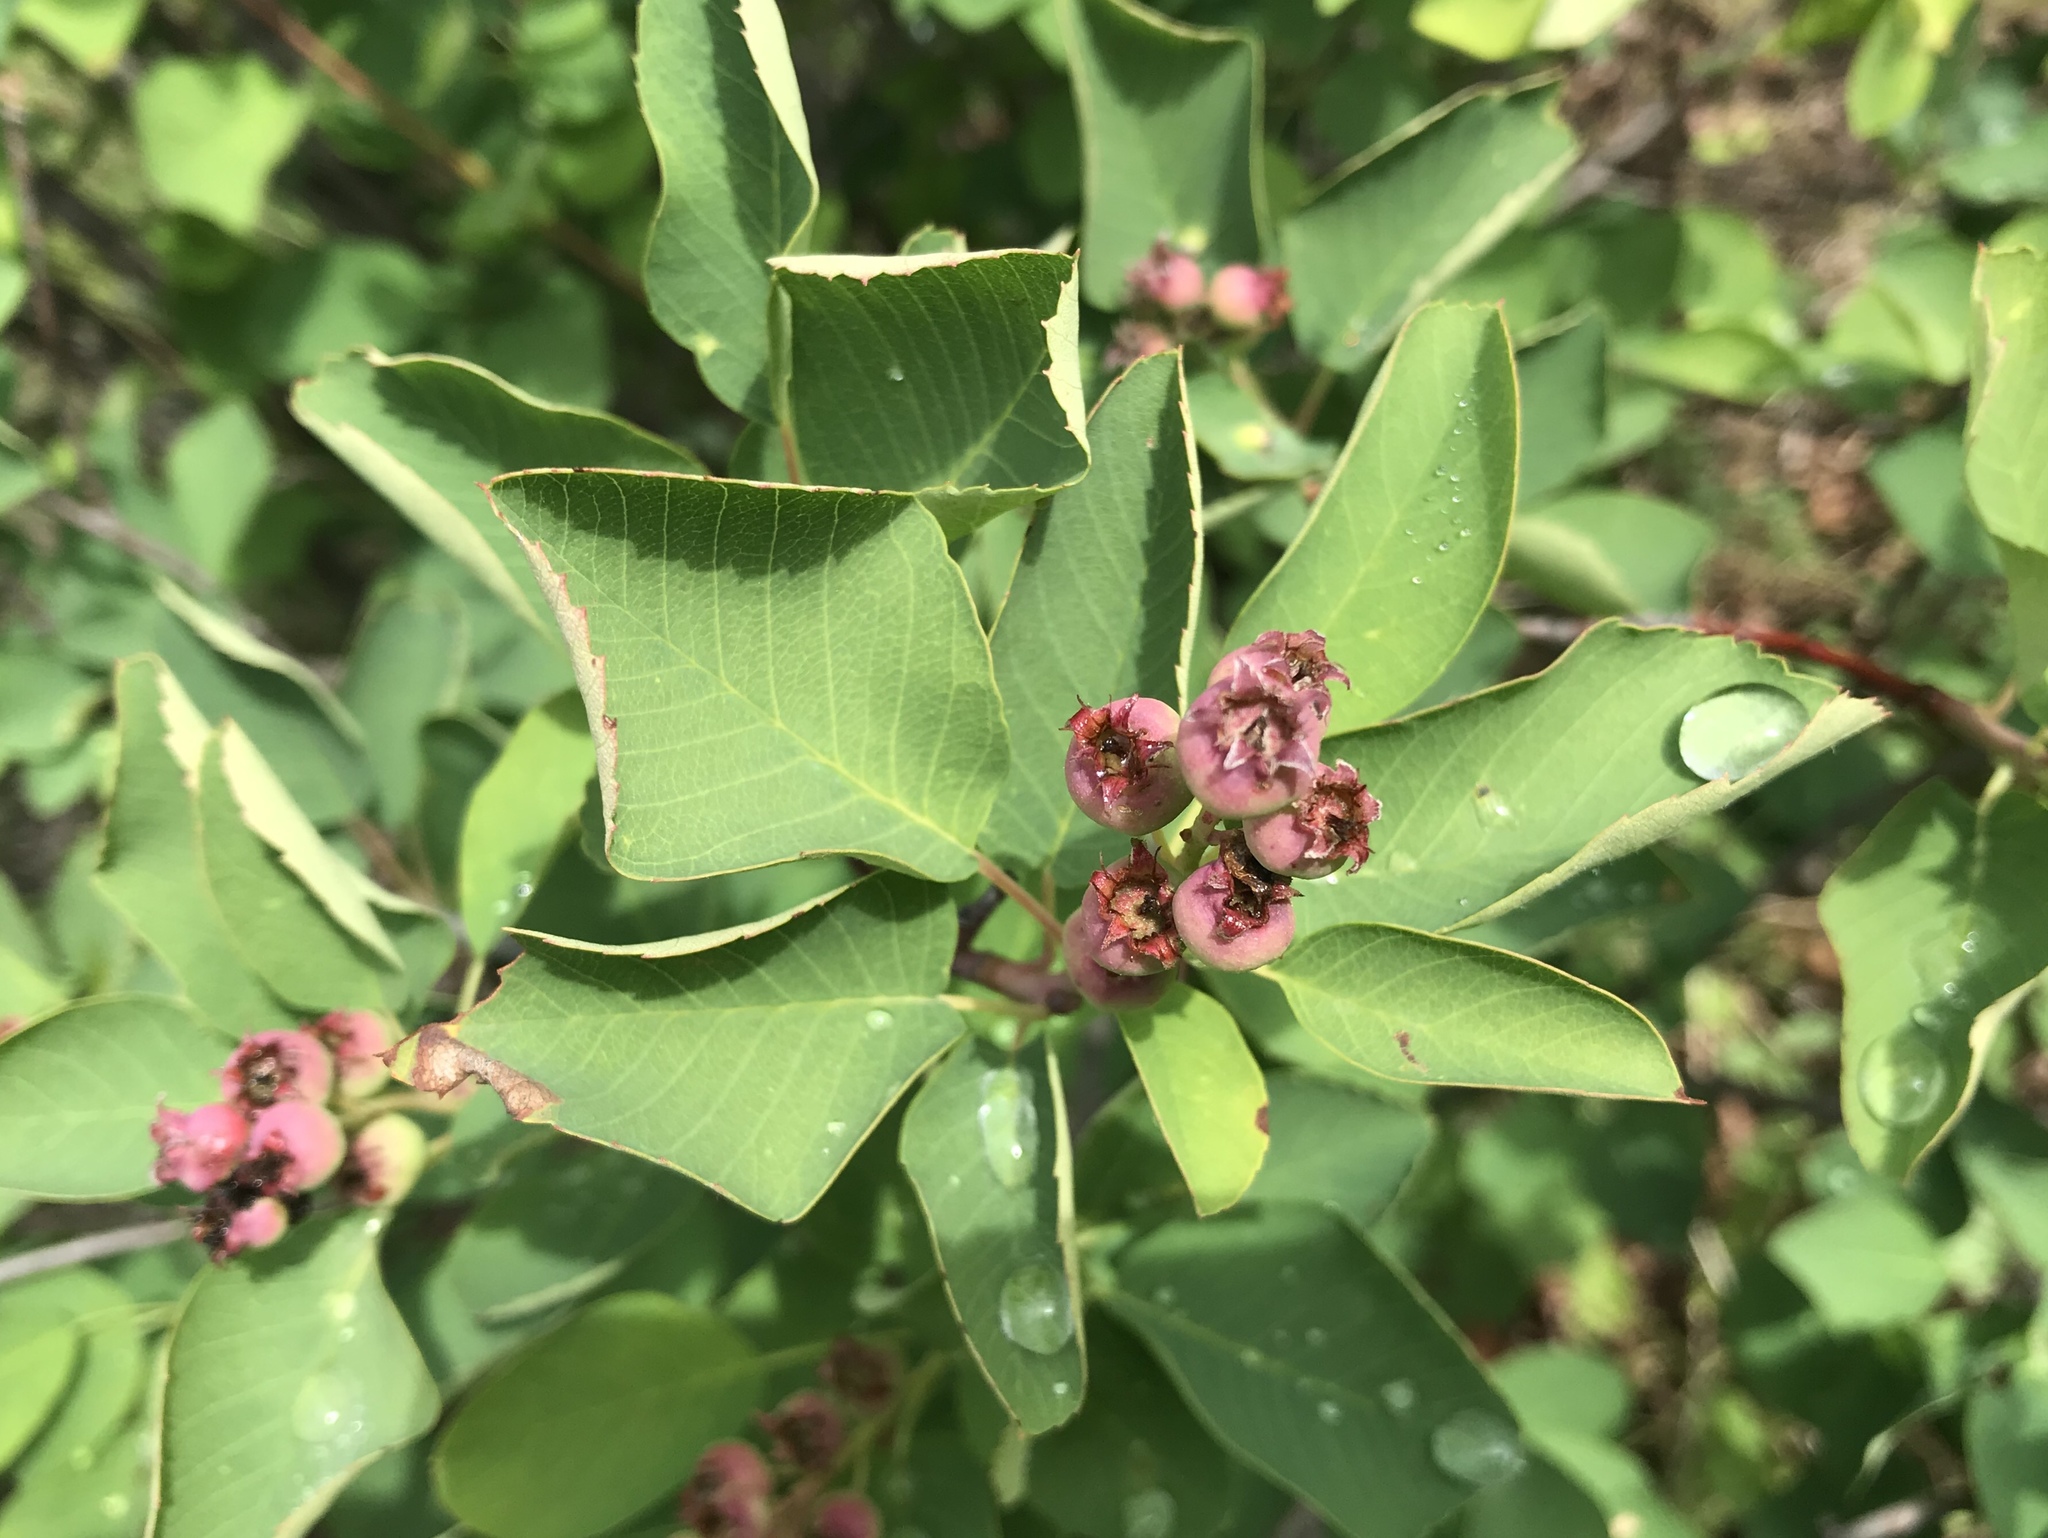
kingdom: Plantae
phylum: Tracheophyta
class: Magnoliopsida
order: Rosales
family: Rosaceae
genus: Amelanchier
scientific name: Amelanchier alnifolia
